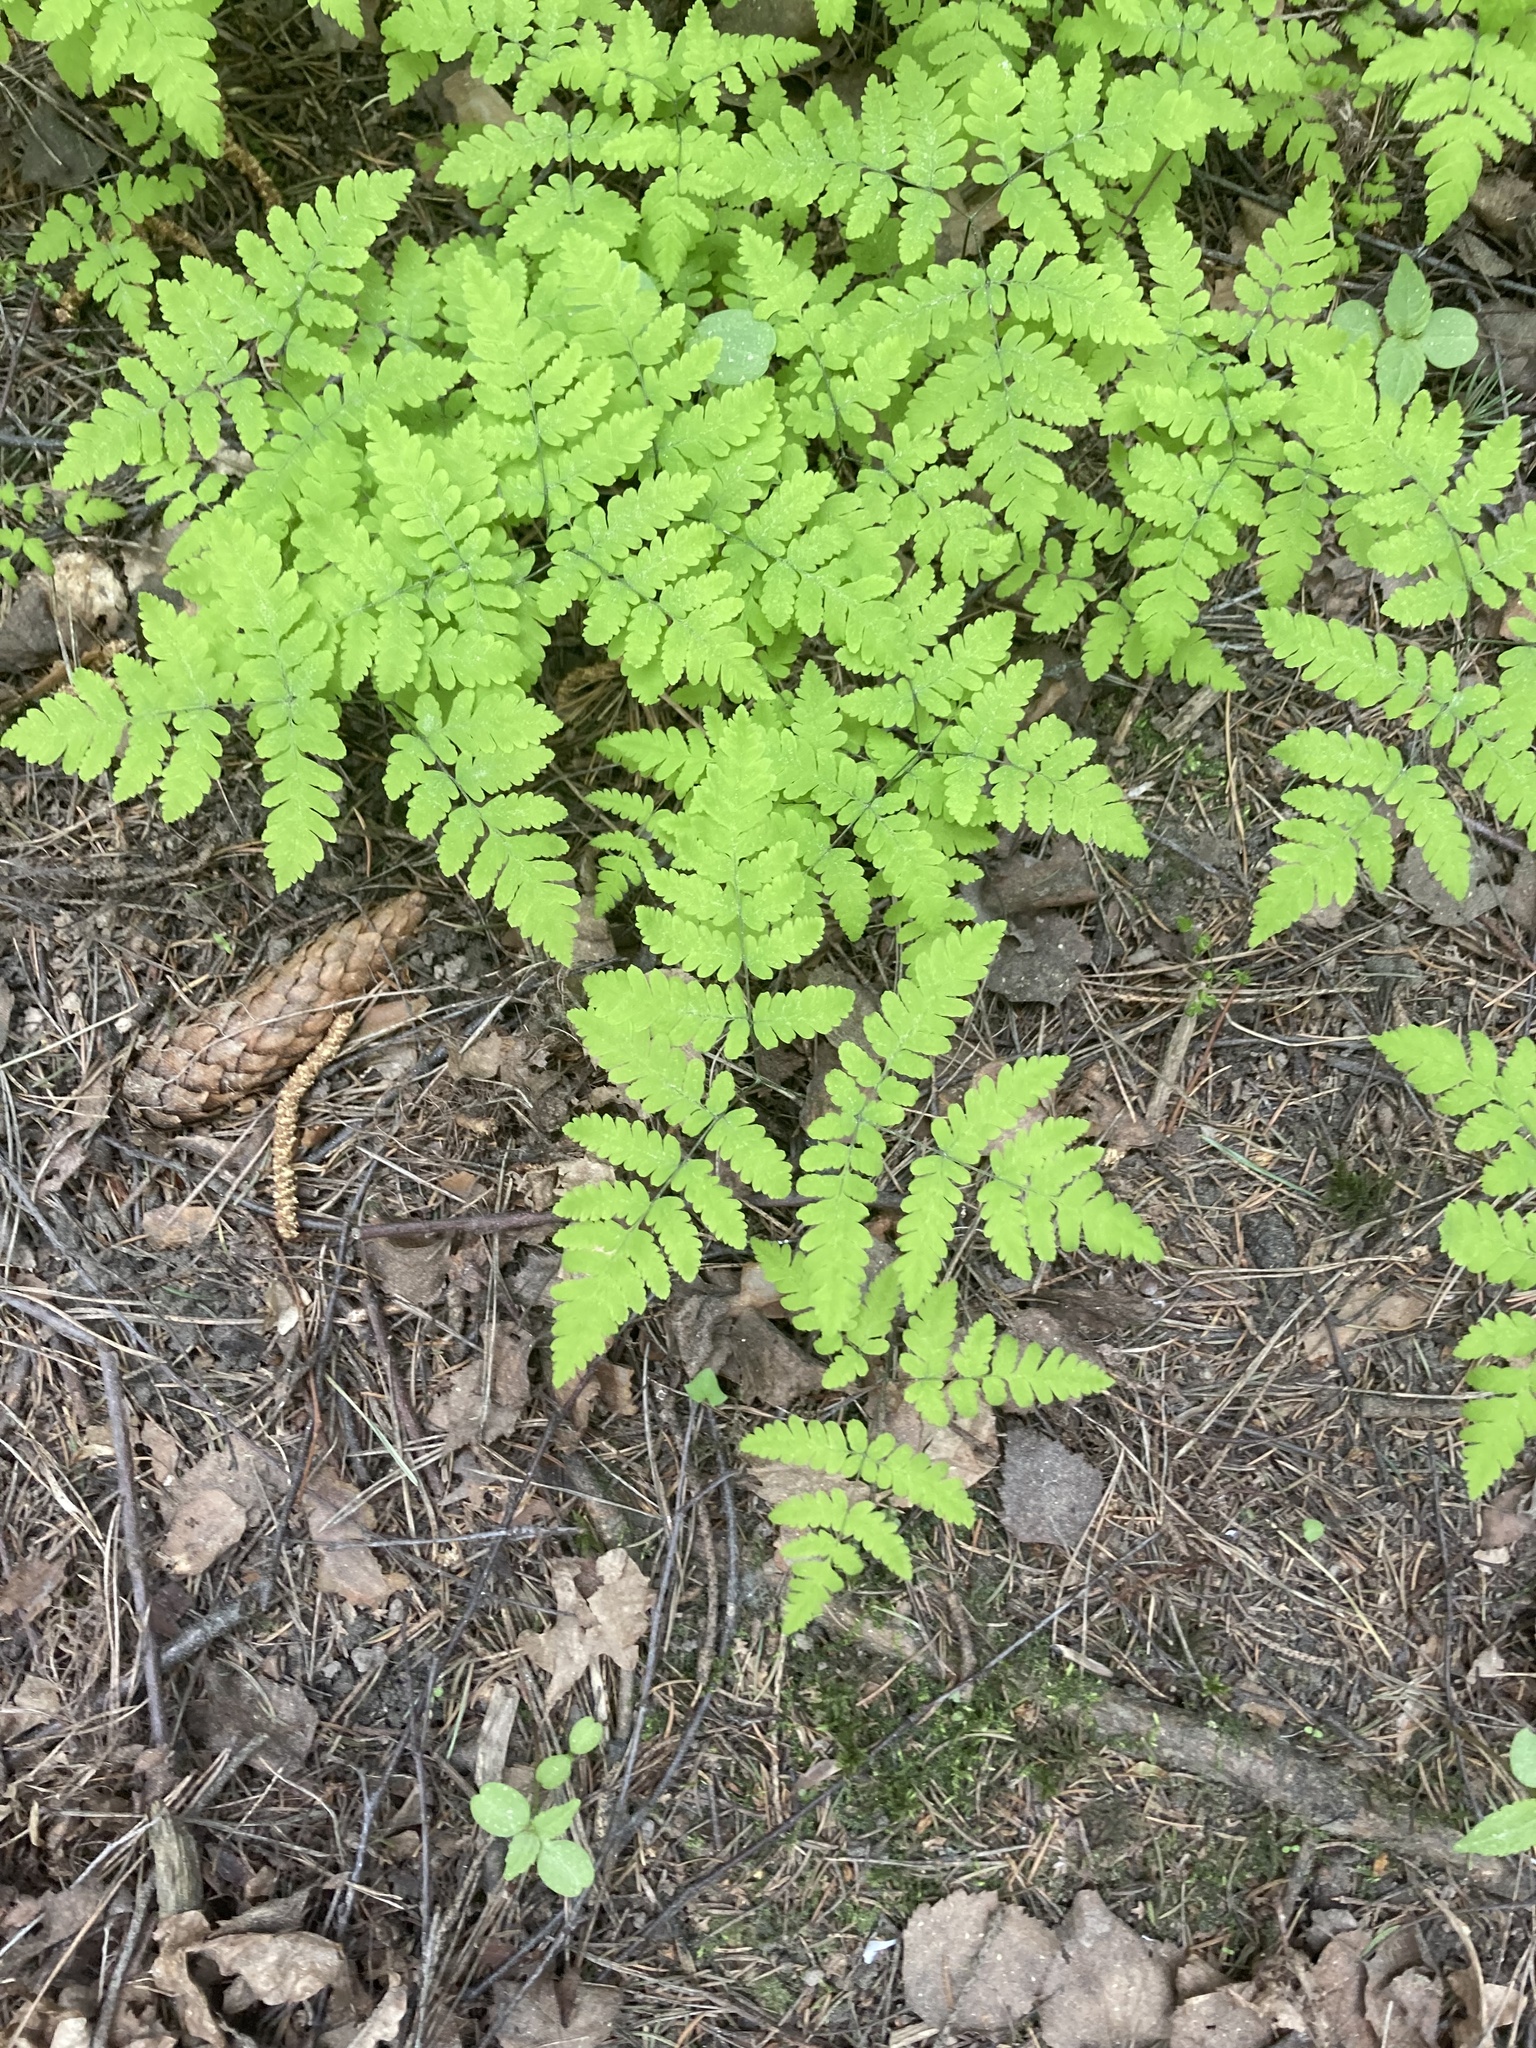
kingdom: Plantae
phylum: Tracheophyta
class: Polypodiopsida
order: Polypodiales
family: Cystopteridaceae
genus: Gymnocarpium
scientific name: Gymnocarpium dryopteris
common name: Oak fern
